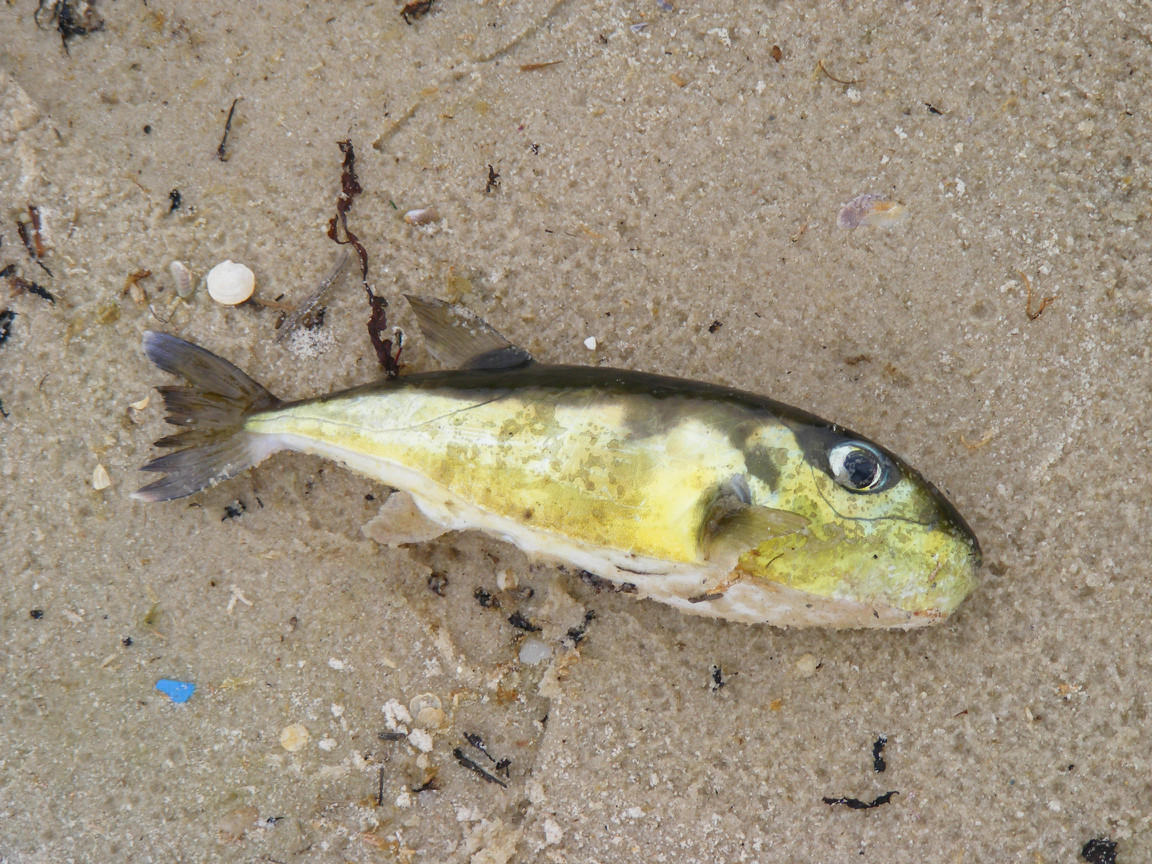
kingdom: Animalia
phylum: Chordata
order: Tetraodontiformes
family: Tetraodontidae
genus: Lagocephalus
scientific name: Lagocephalus spadiceus
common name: Half-smooth golden pufferfish
